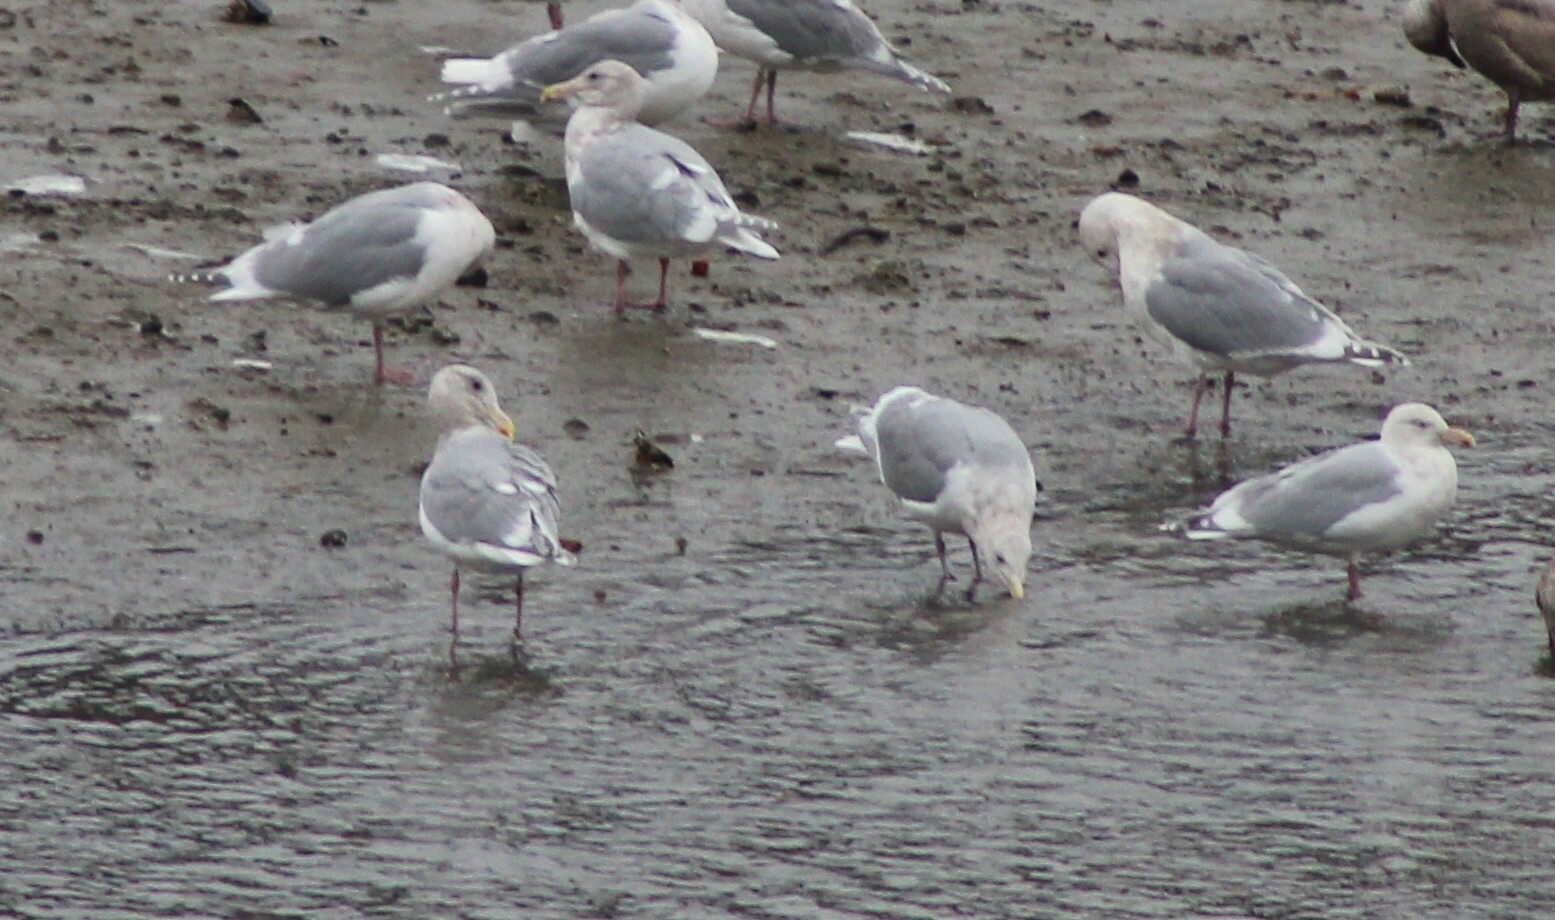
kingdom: Animalia
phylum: Chordata
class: Aves
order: Charadriiformes
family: Laridae
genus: Larus
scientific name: Larus
